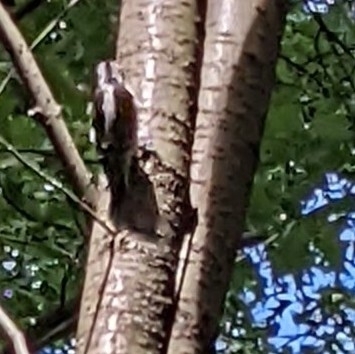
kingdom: Animalia
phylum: Chordata
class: Aves
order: Piciformes
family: Picidae
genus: Dryobates
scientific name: Dryobates pubescens
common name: Downy woodpecker
